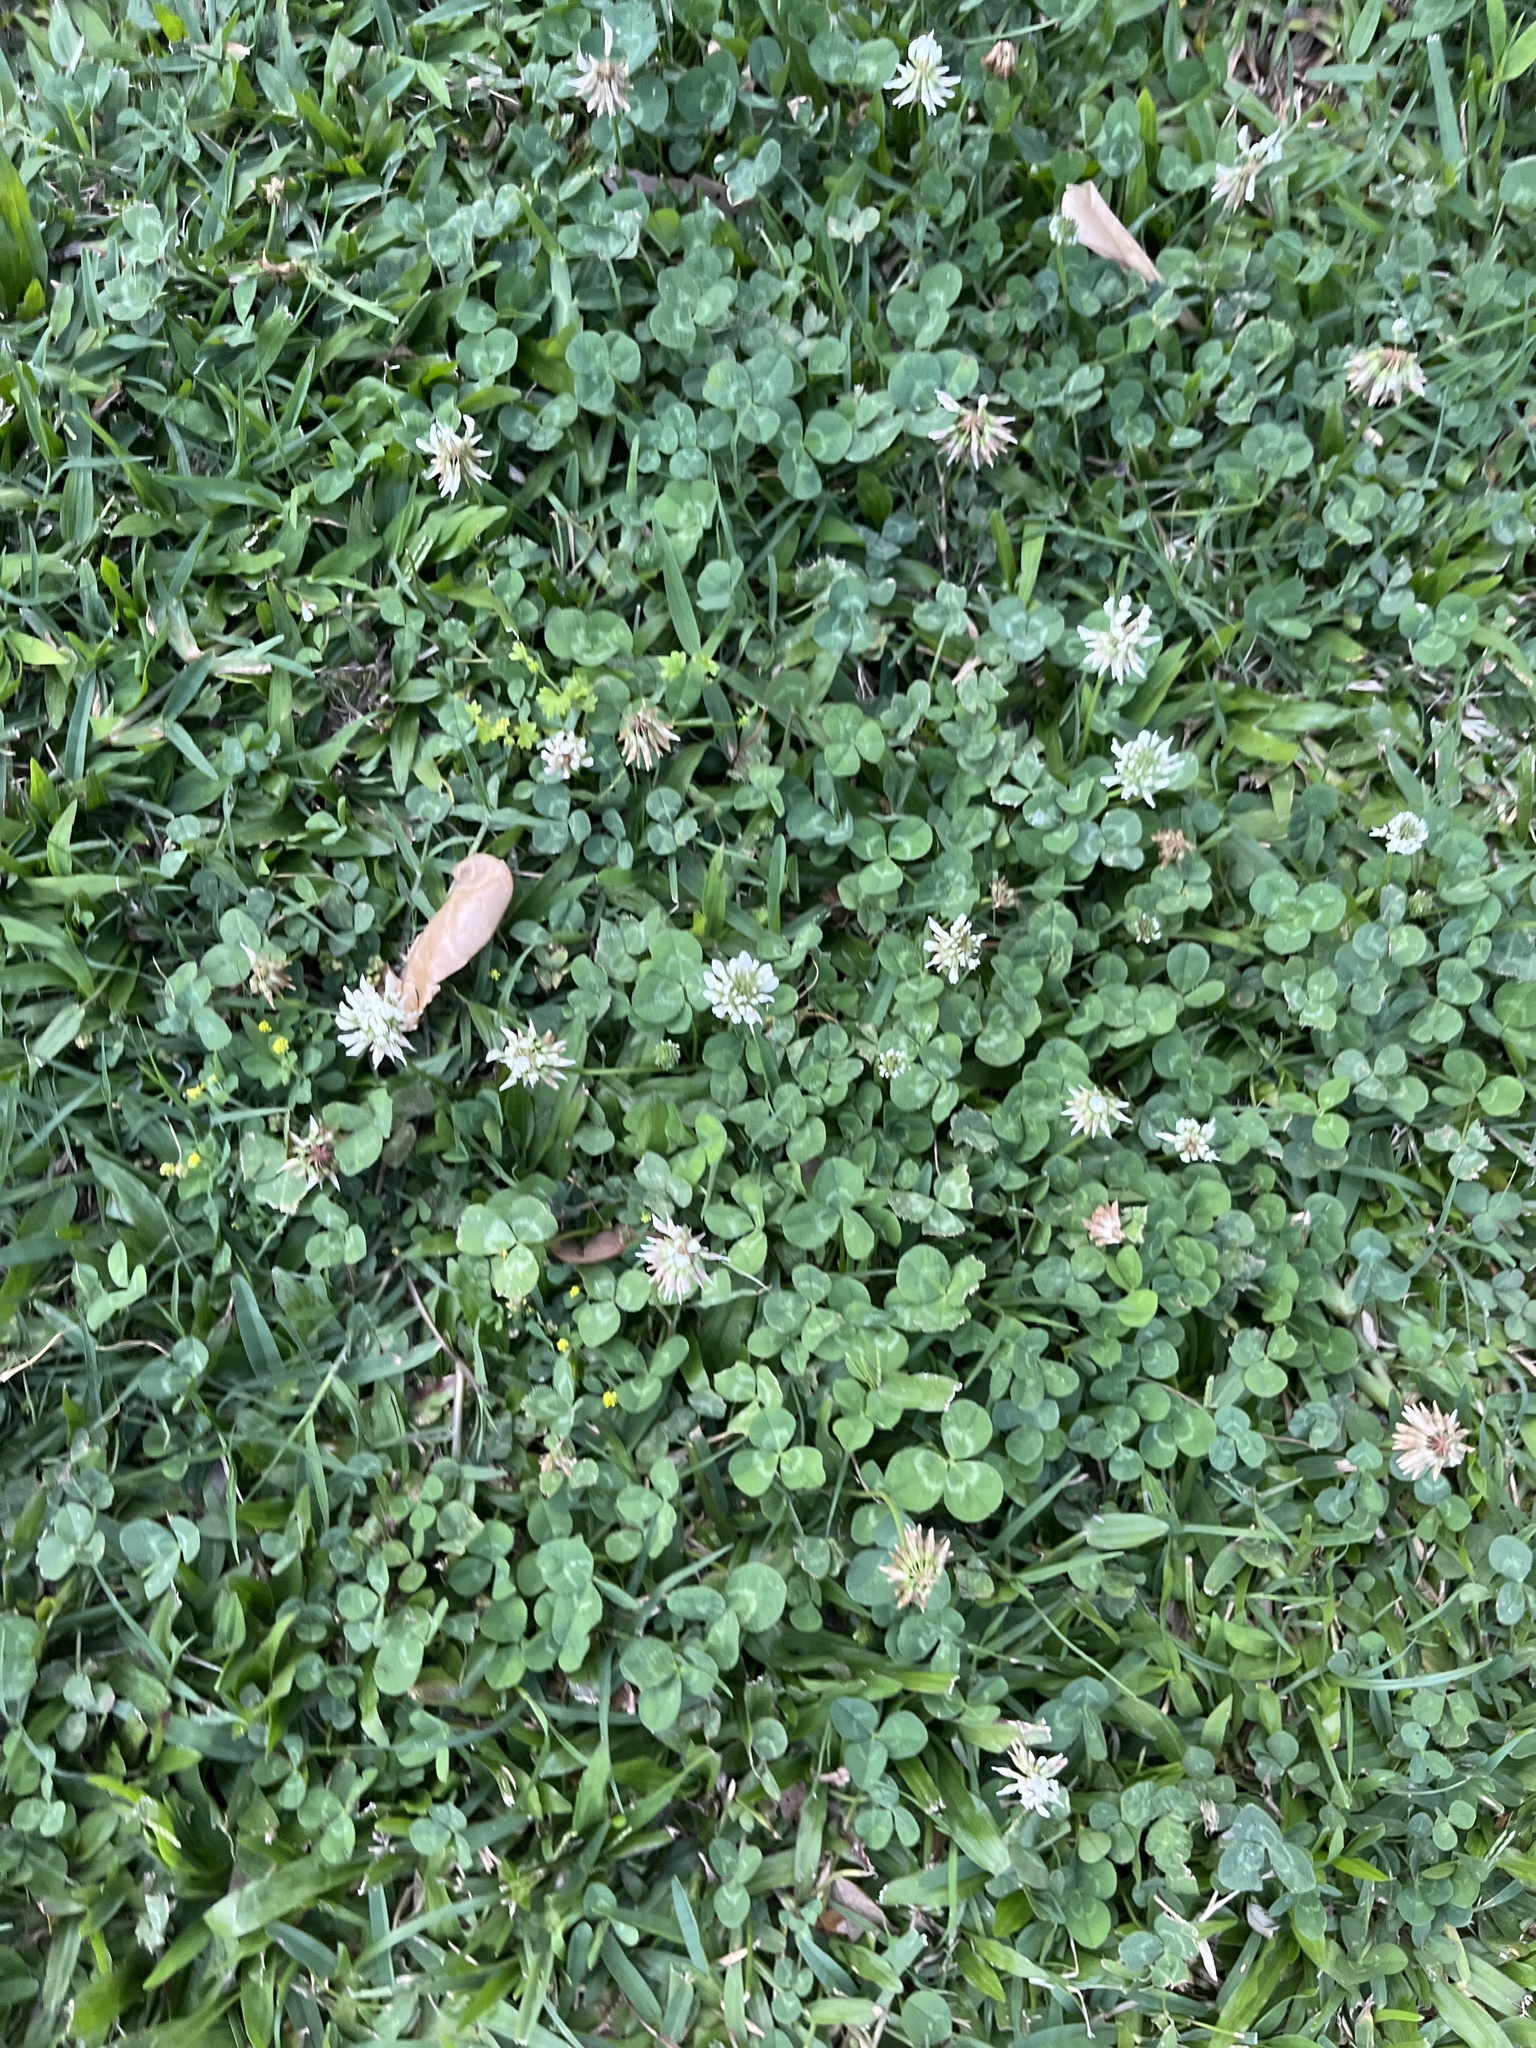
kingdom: Plantae
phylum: Tracheophyta
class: Magnoliopsida
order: Fabales
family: Fabaceae
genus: Trifolium
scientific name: Trifolium repens
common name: White clover
